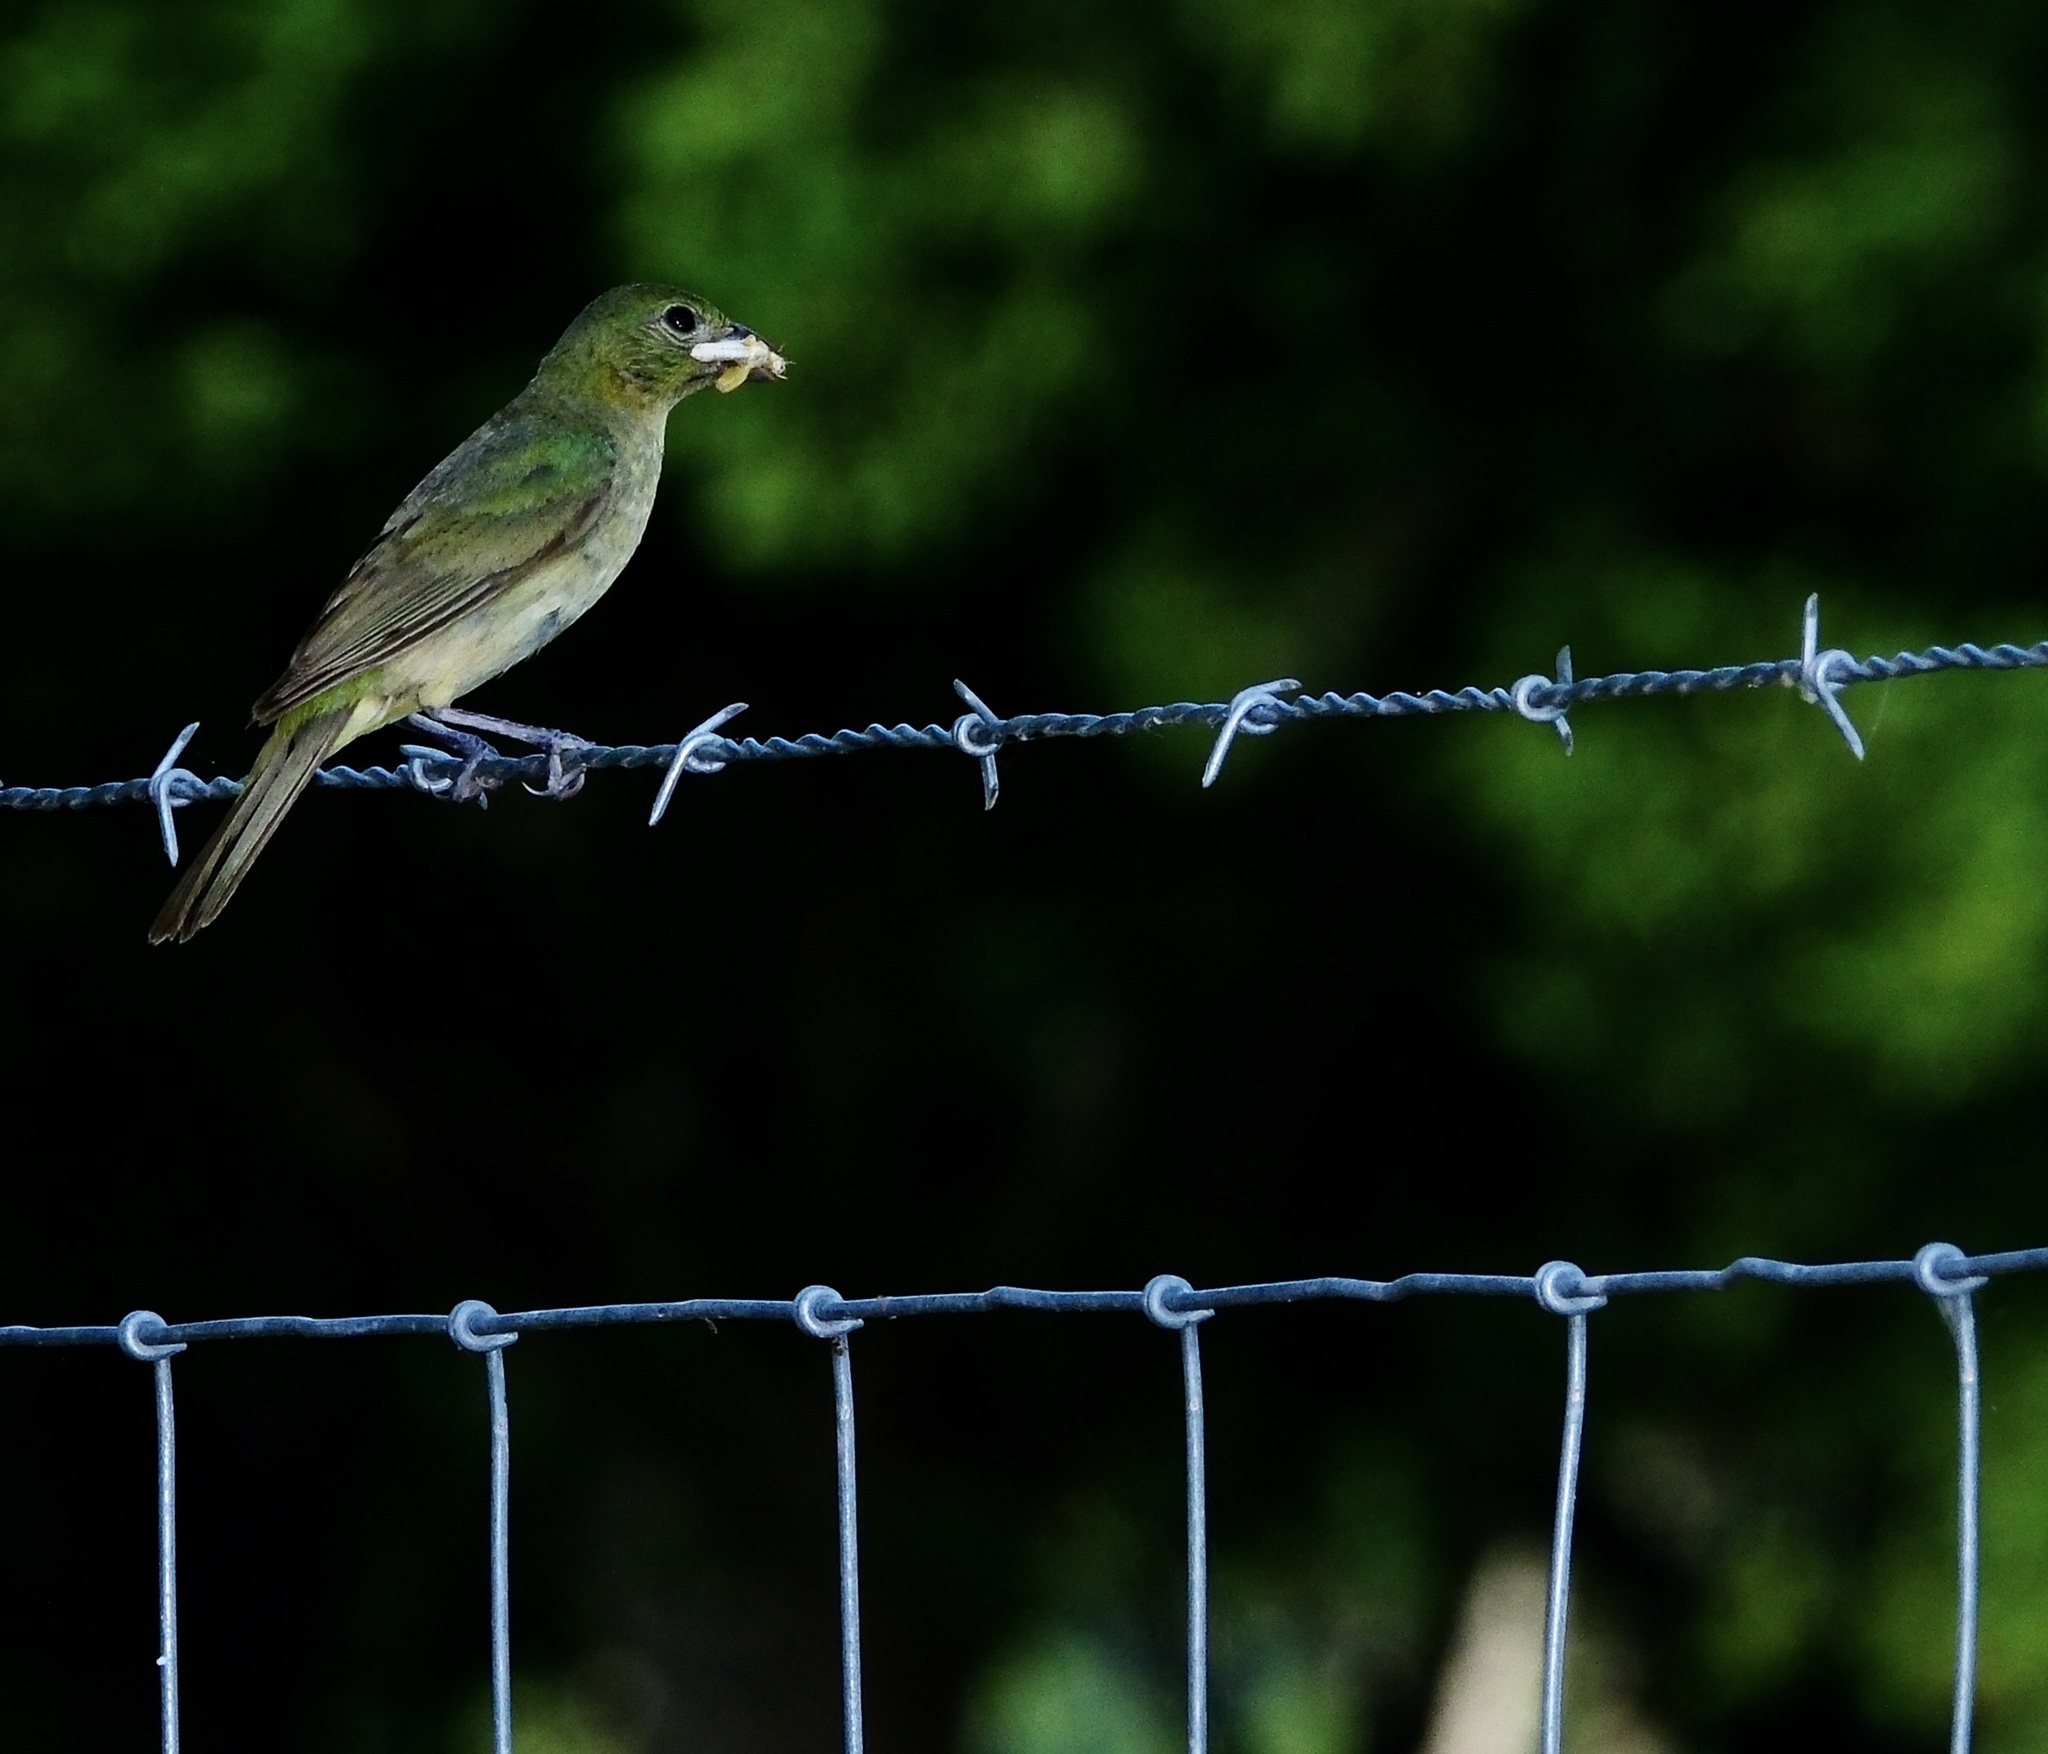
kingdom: Animalia
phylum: Chordata
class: Aves
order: Passeriformes
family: Cardinalidae
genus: Passerina
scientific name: Passerina ciris
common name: Painted bunting
